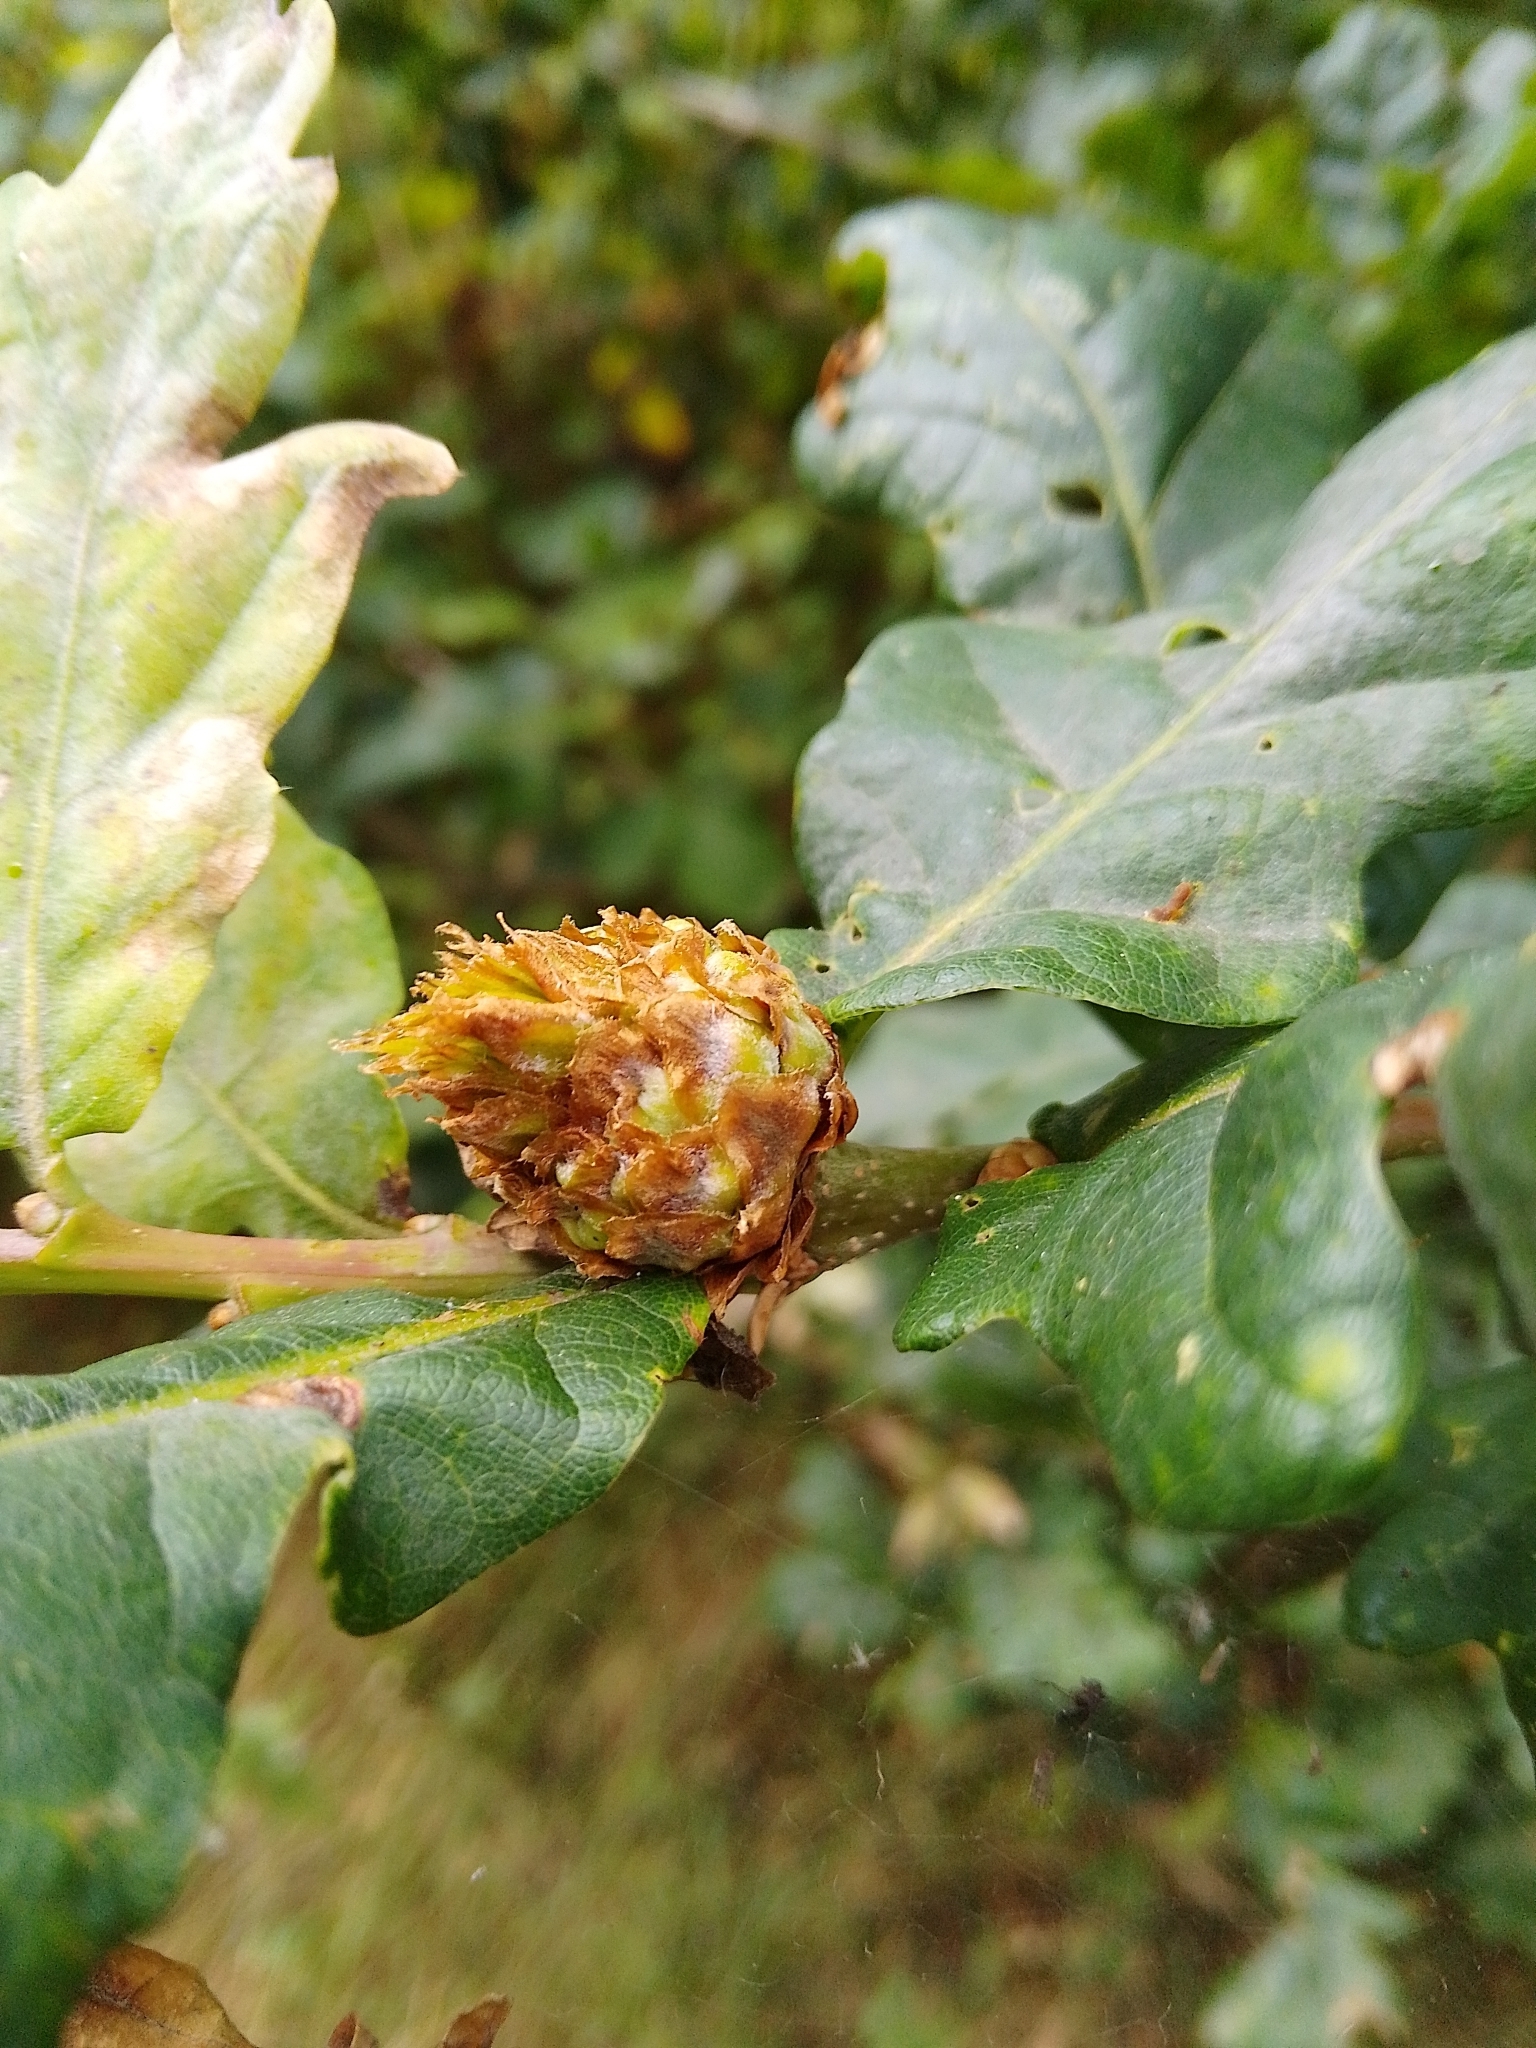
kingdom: Animalia
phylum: Arthropoda
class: Insecta
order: Hymenoptera
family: Cynipidae
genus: Andricus
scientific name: Andricus foecundatrix
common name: Artichoke gall
